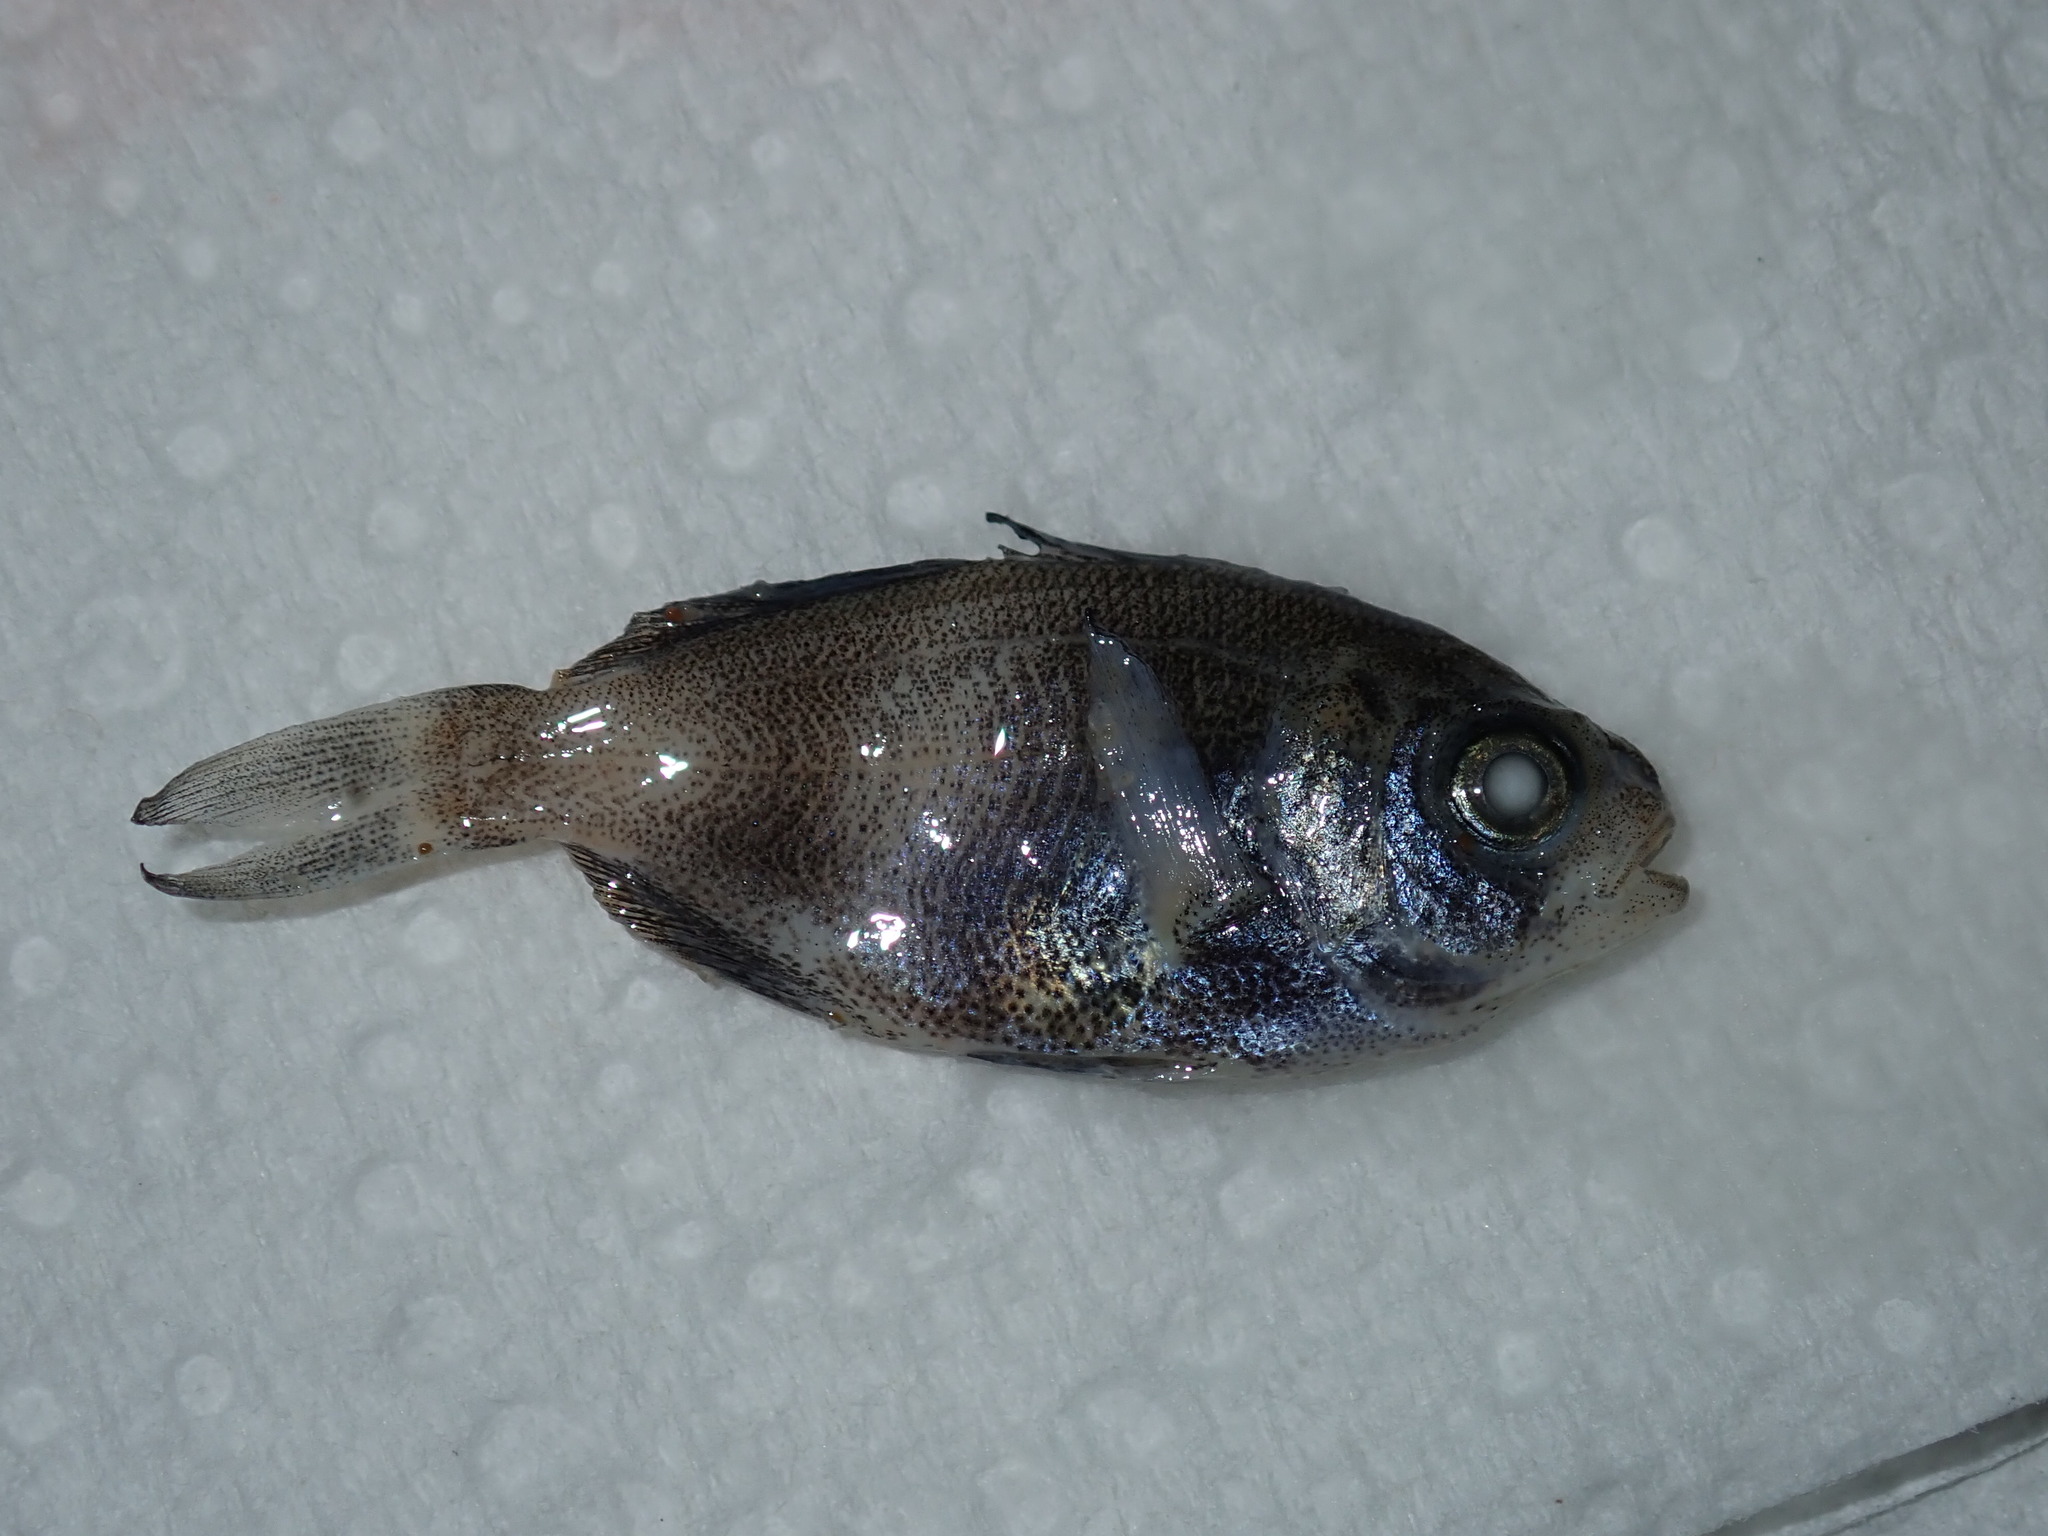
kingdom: Animalia
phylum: Chordata
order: Perciformes
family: Nomeidae
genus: Cubiceps
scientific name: Cubiceps whiteleggii
